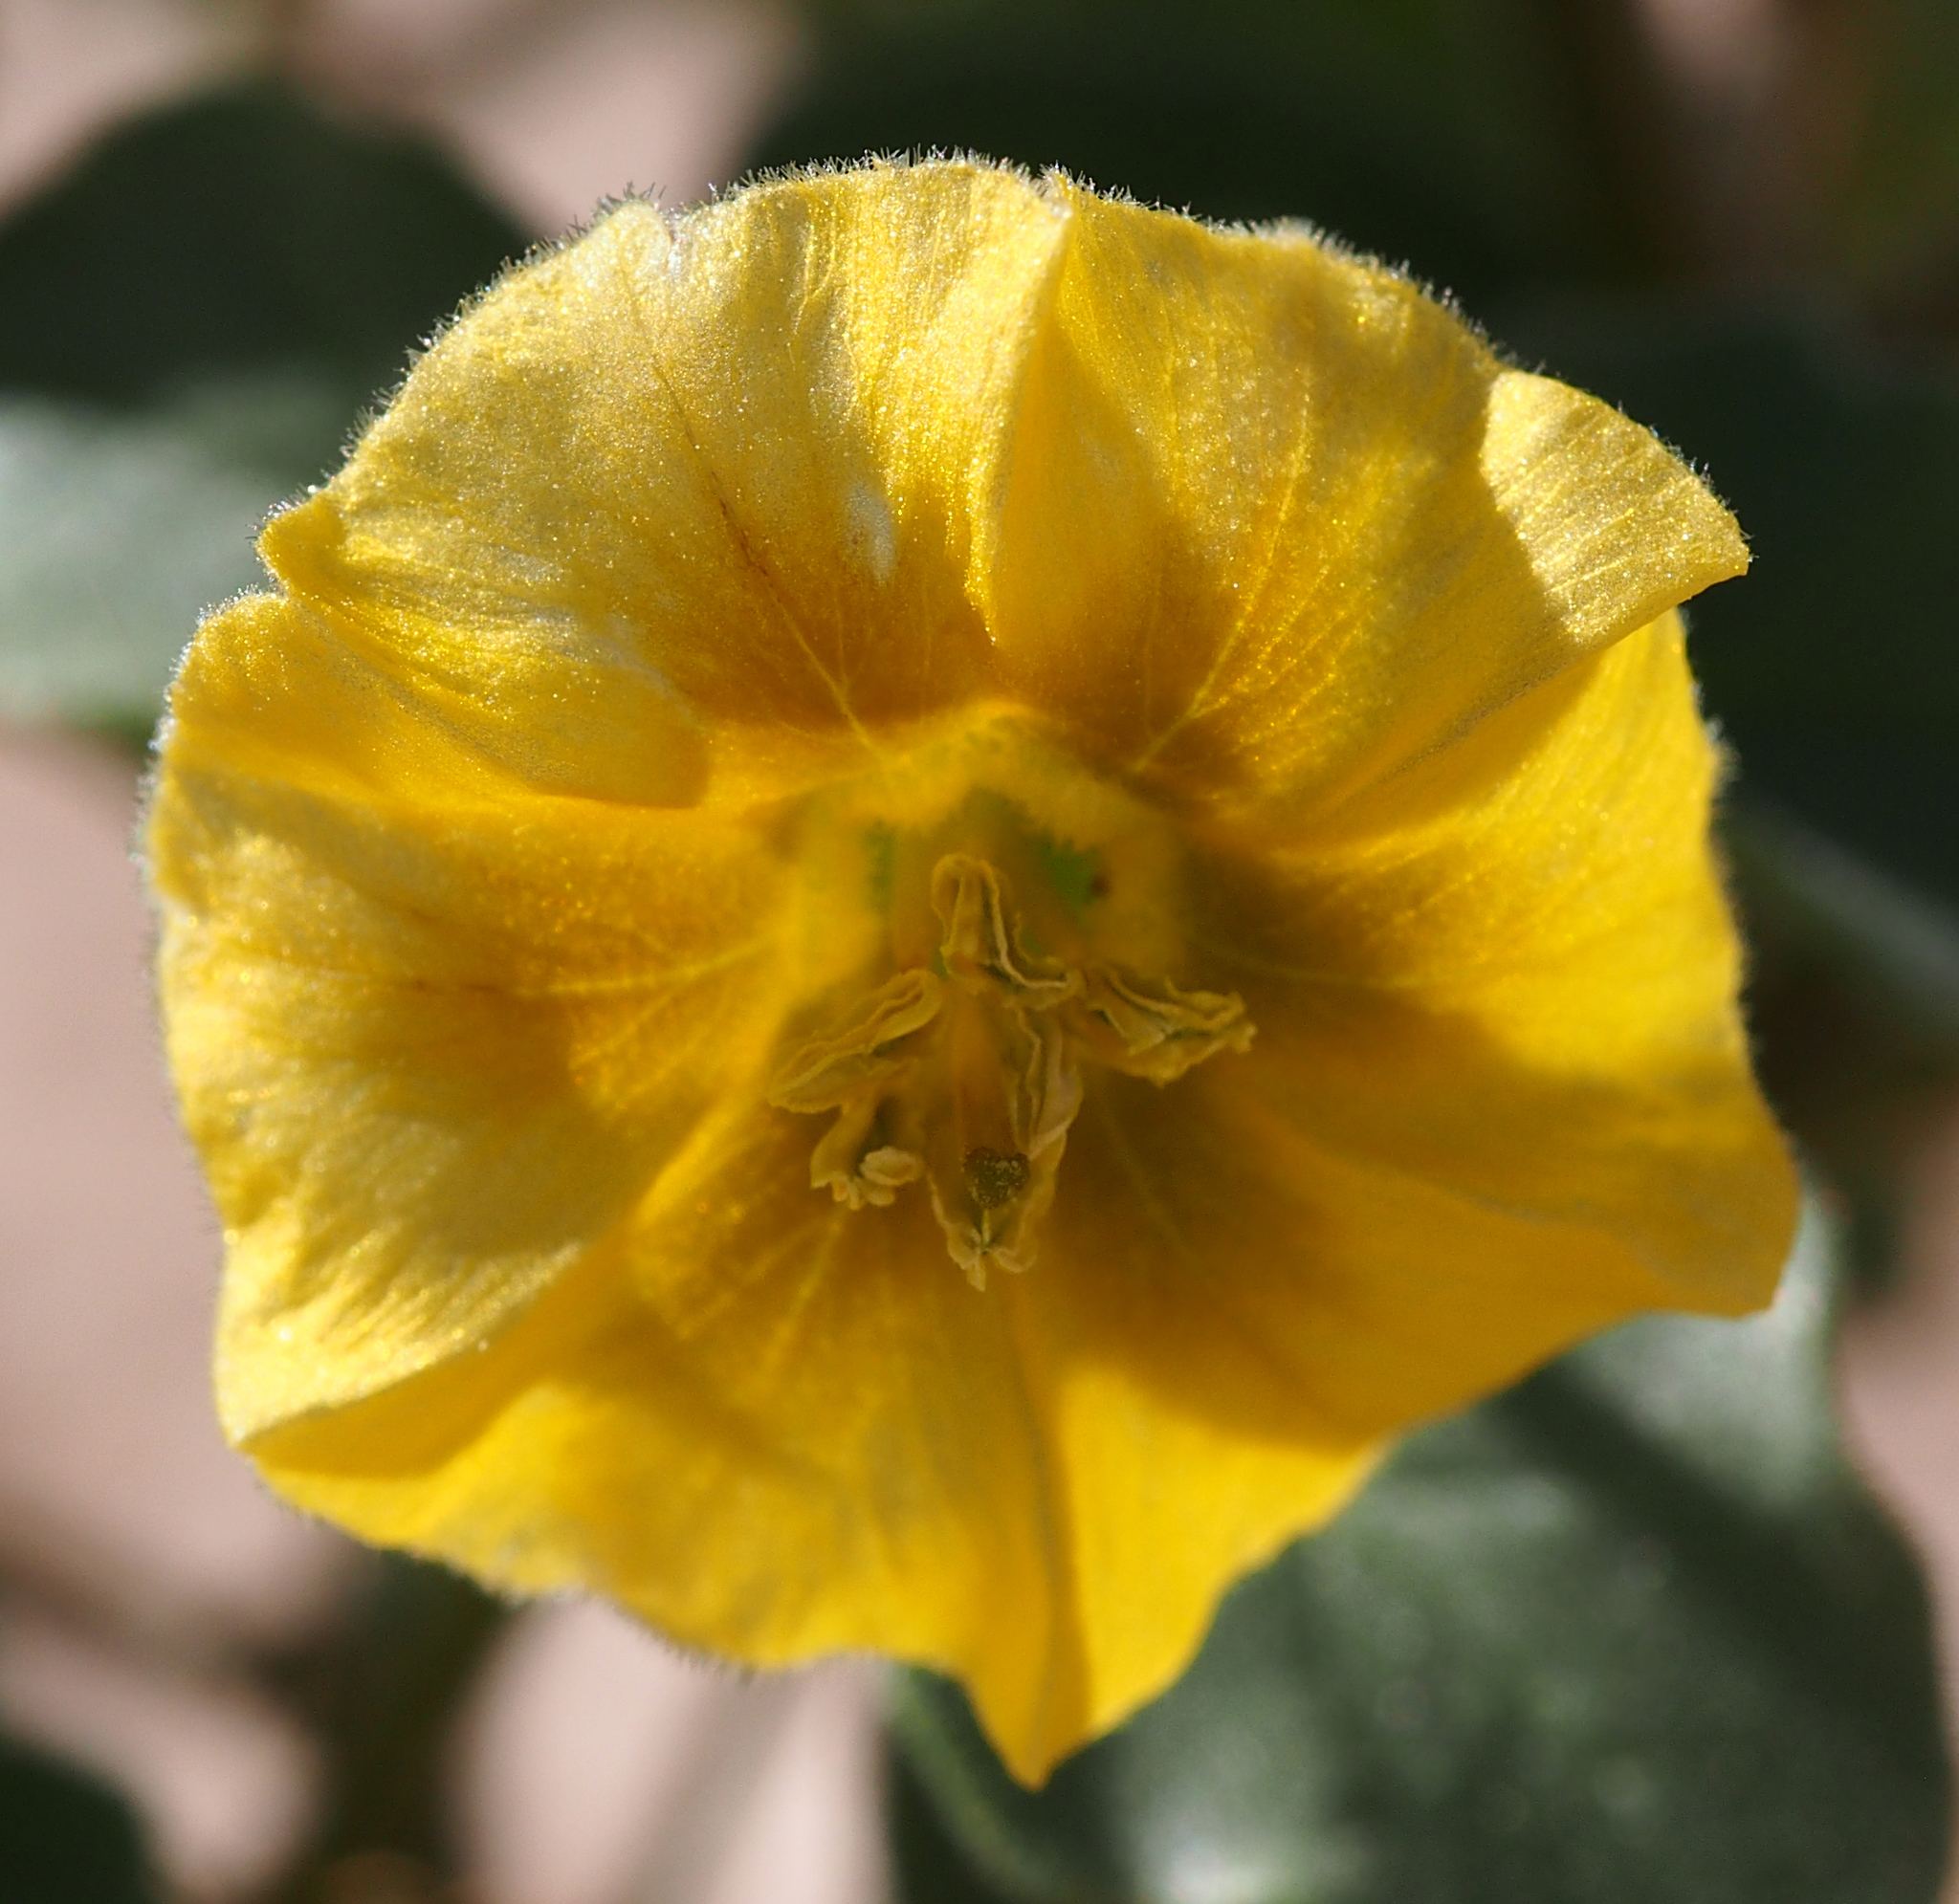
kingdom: Plantae
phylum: Tracheophyta
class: Magnoliopsida
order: Solanales
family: Solanaceae
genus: Physalis
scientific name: Physalis crassifolia
